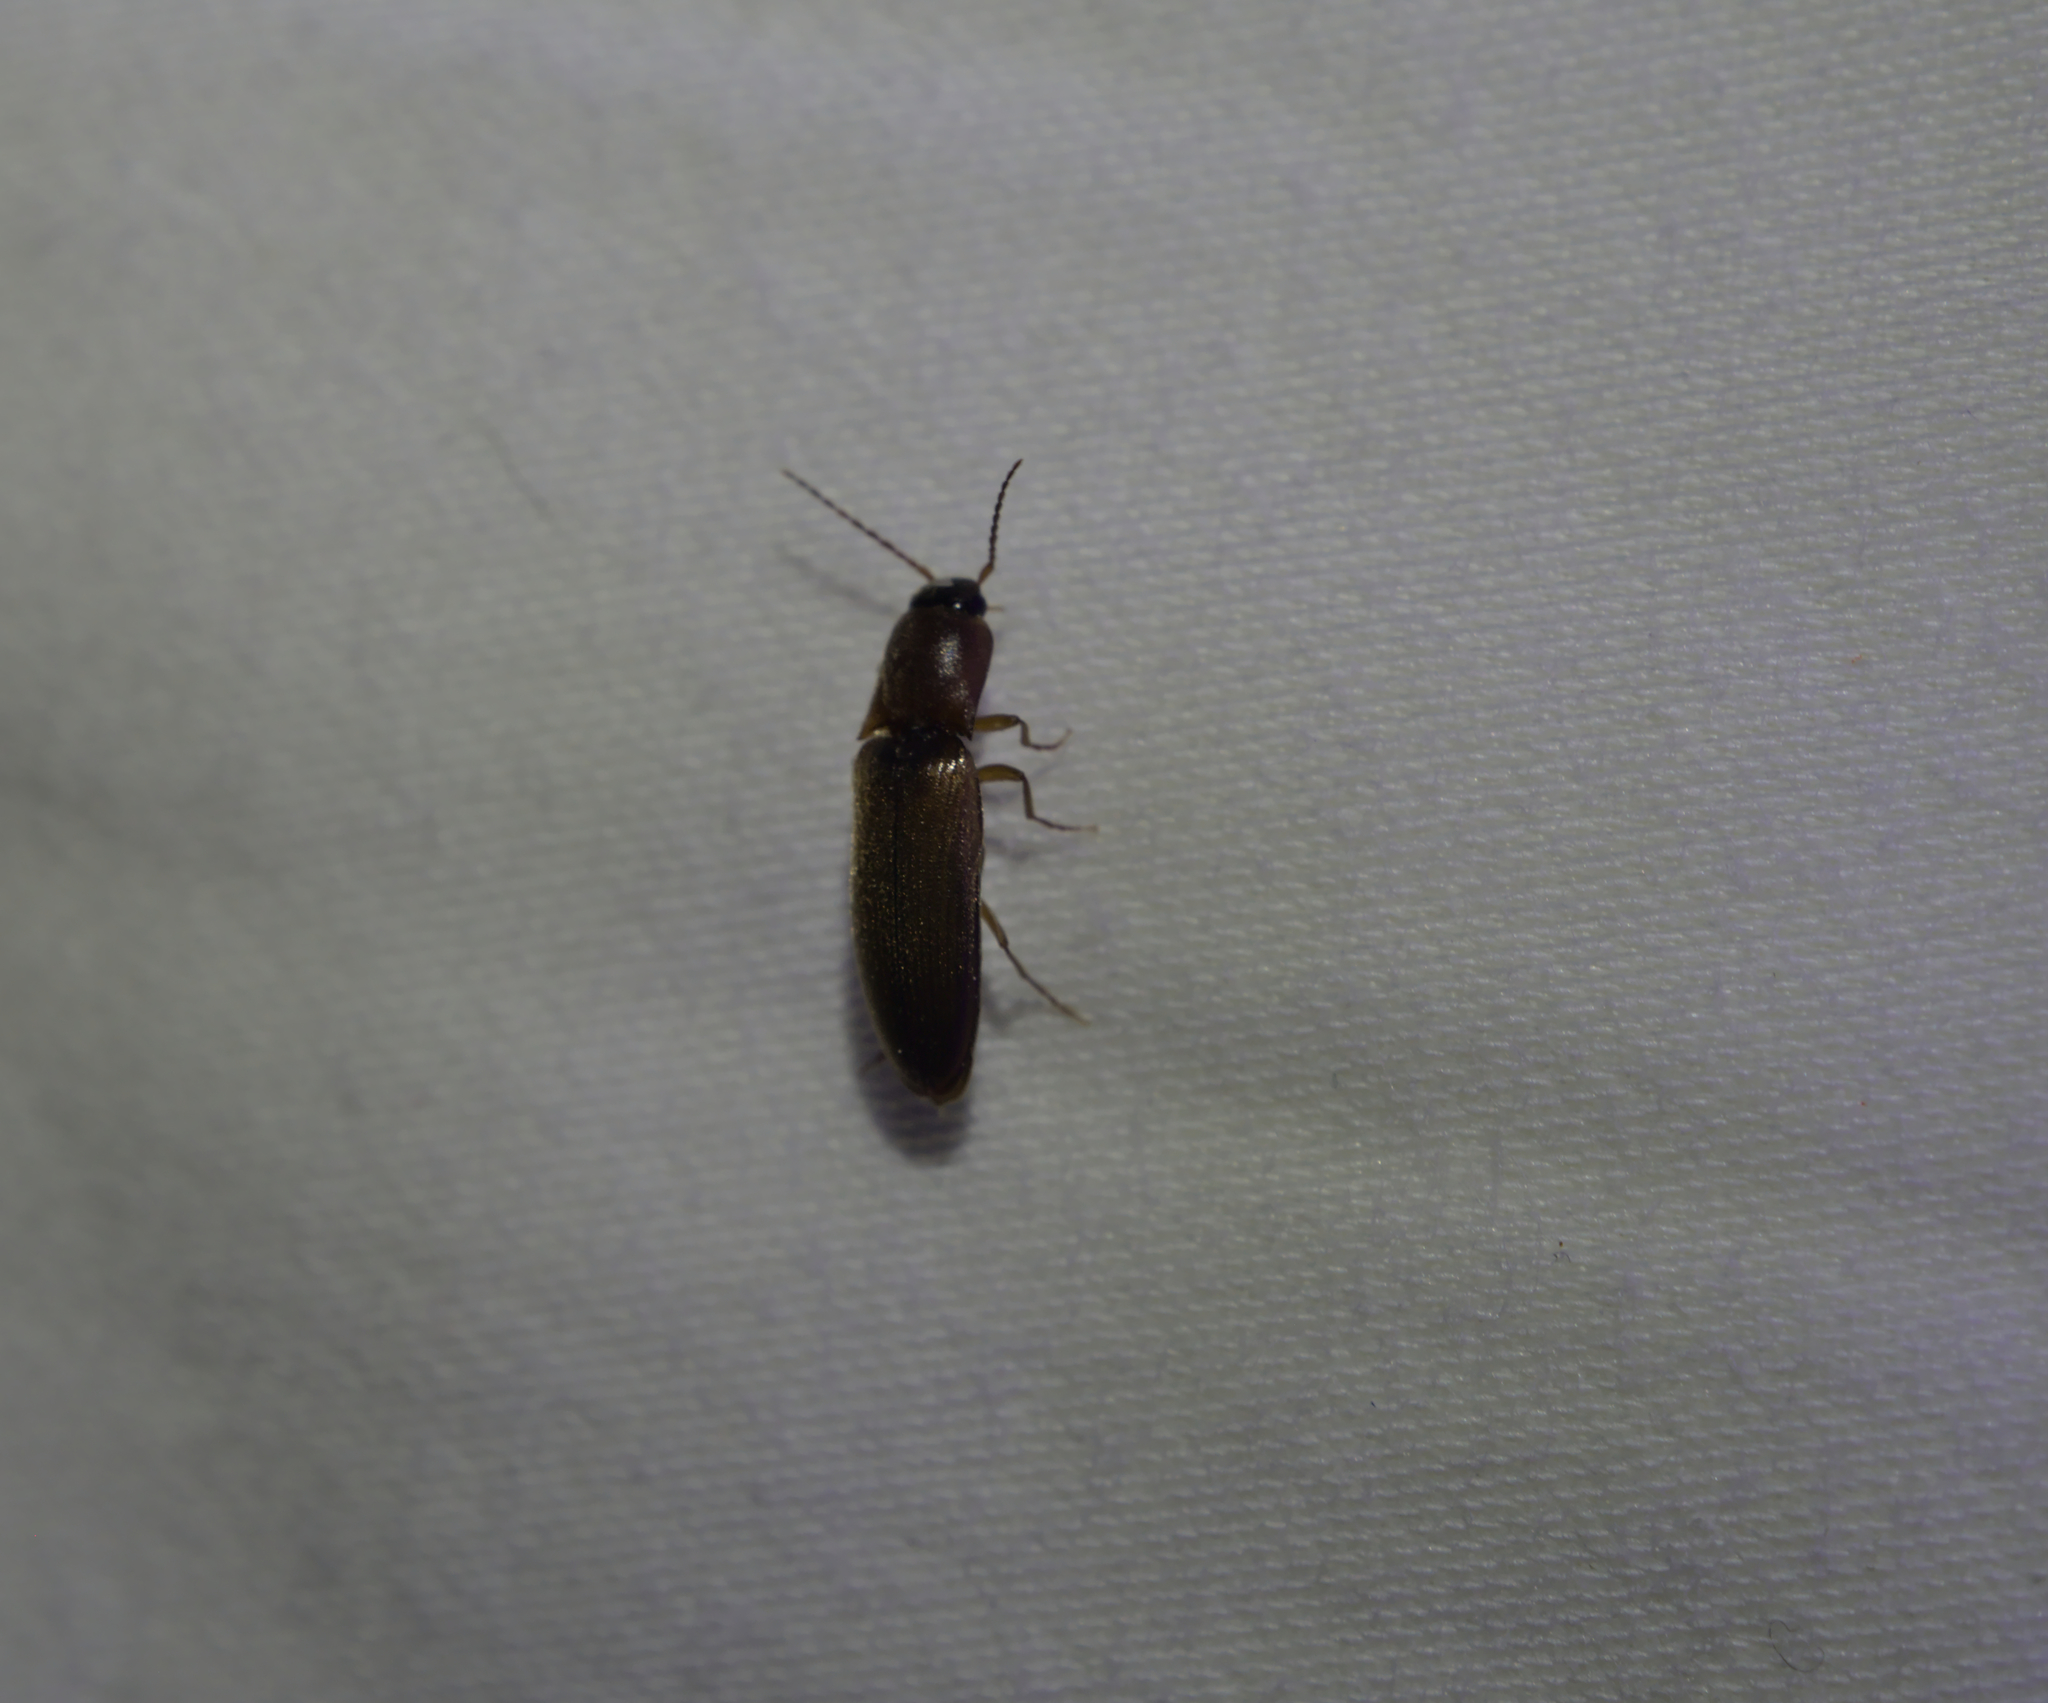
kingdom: Animalia
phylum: Arthropoda
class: Insecta
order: Coleoptera
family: Elateridae
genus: Dalopius
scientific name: Dalopius marginatus
